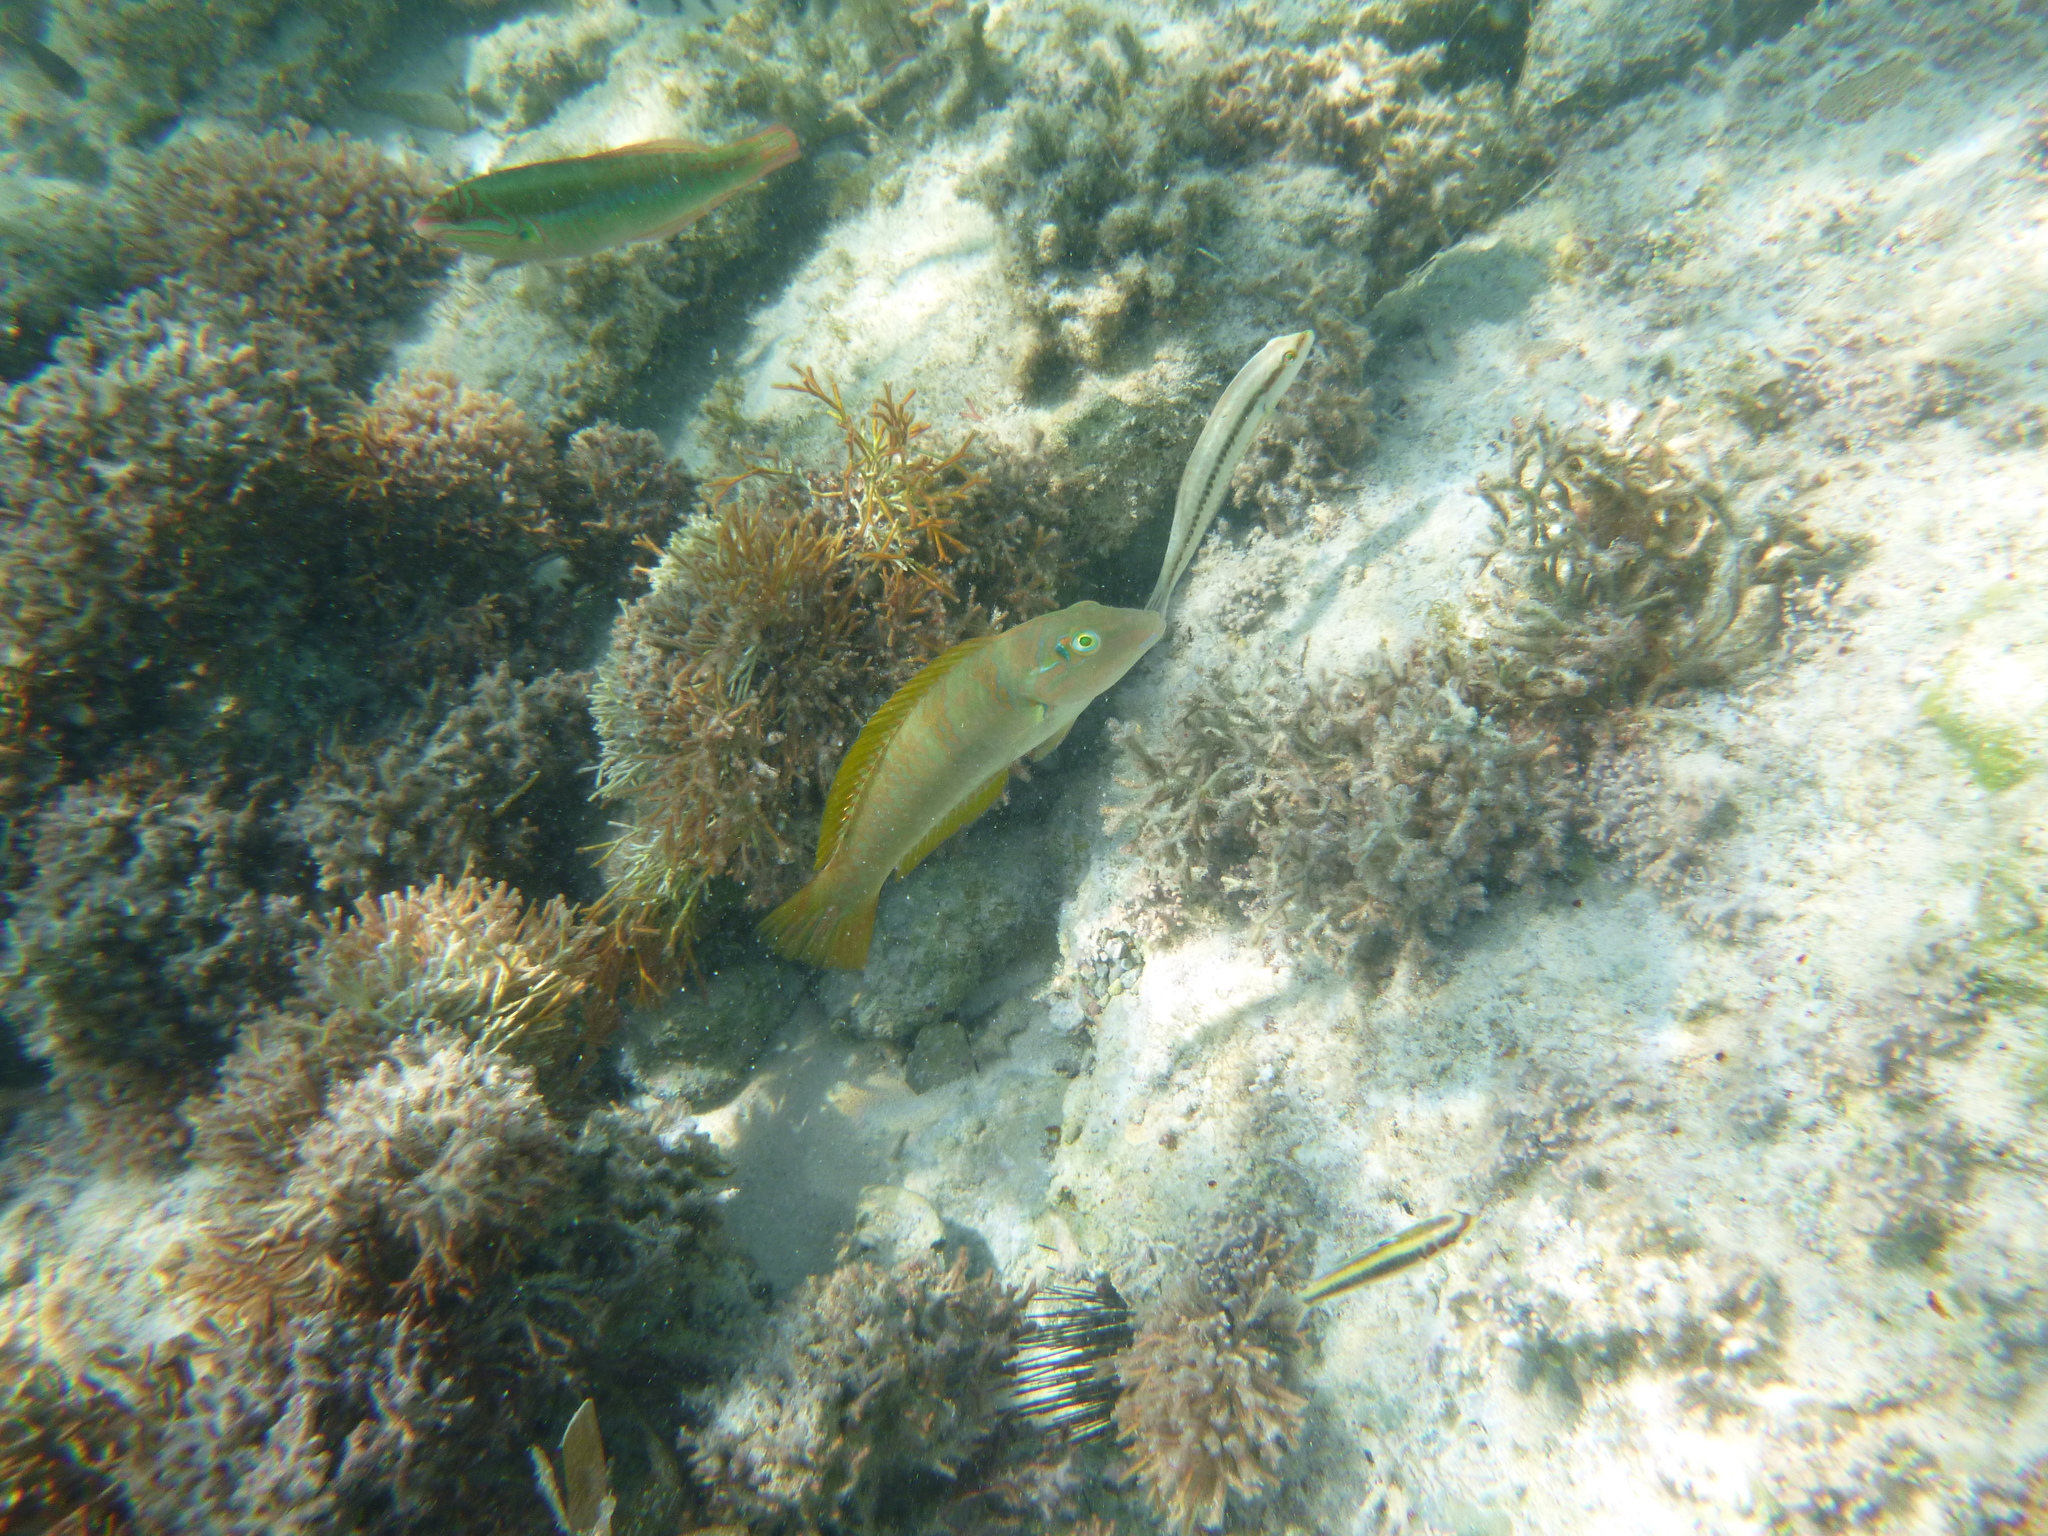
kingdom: Animalia
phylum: Chordata
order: Perciformes
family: Labridae
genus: Halichoeres
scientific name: Halichoeres poeyi
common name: Blackear wrasse
